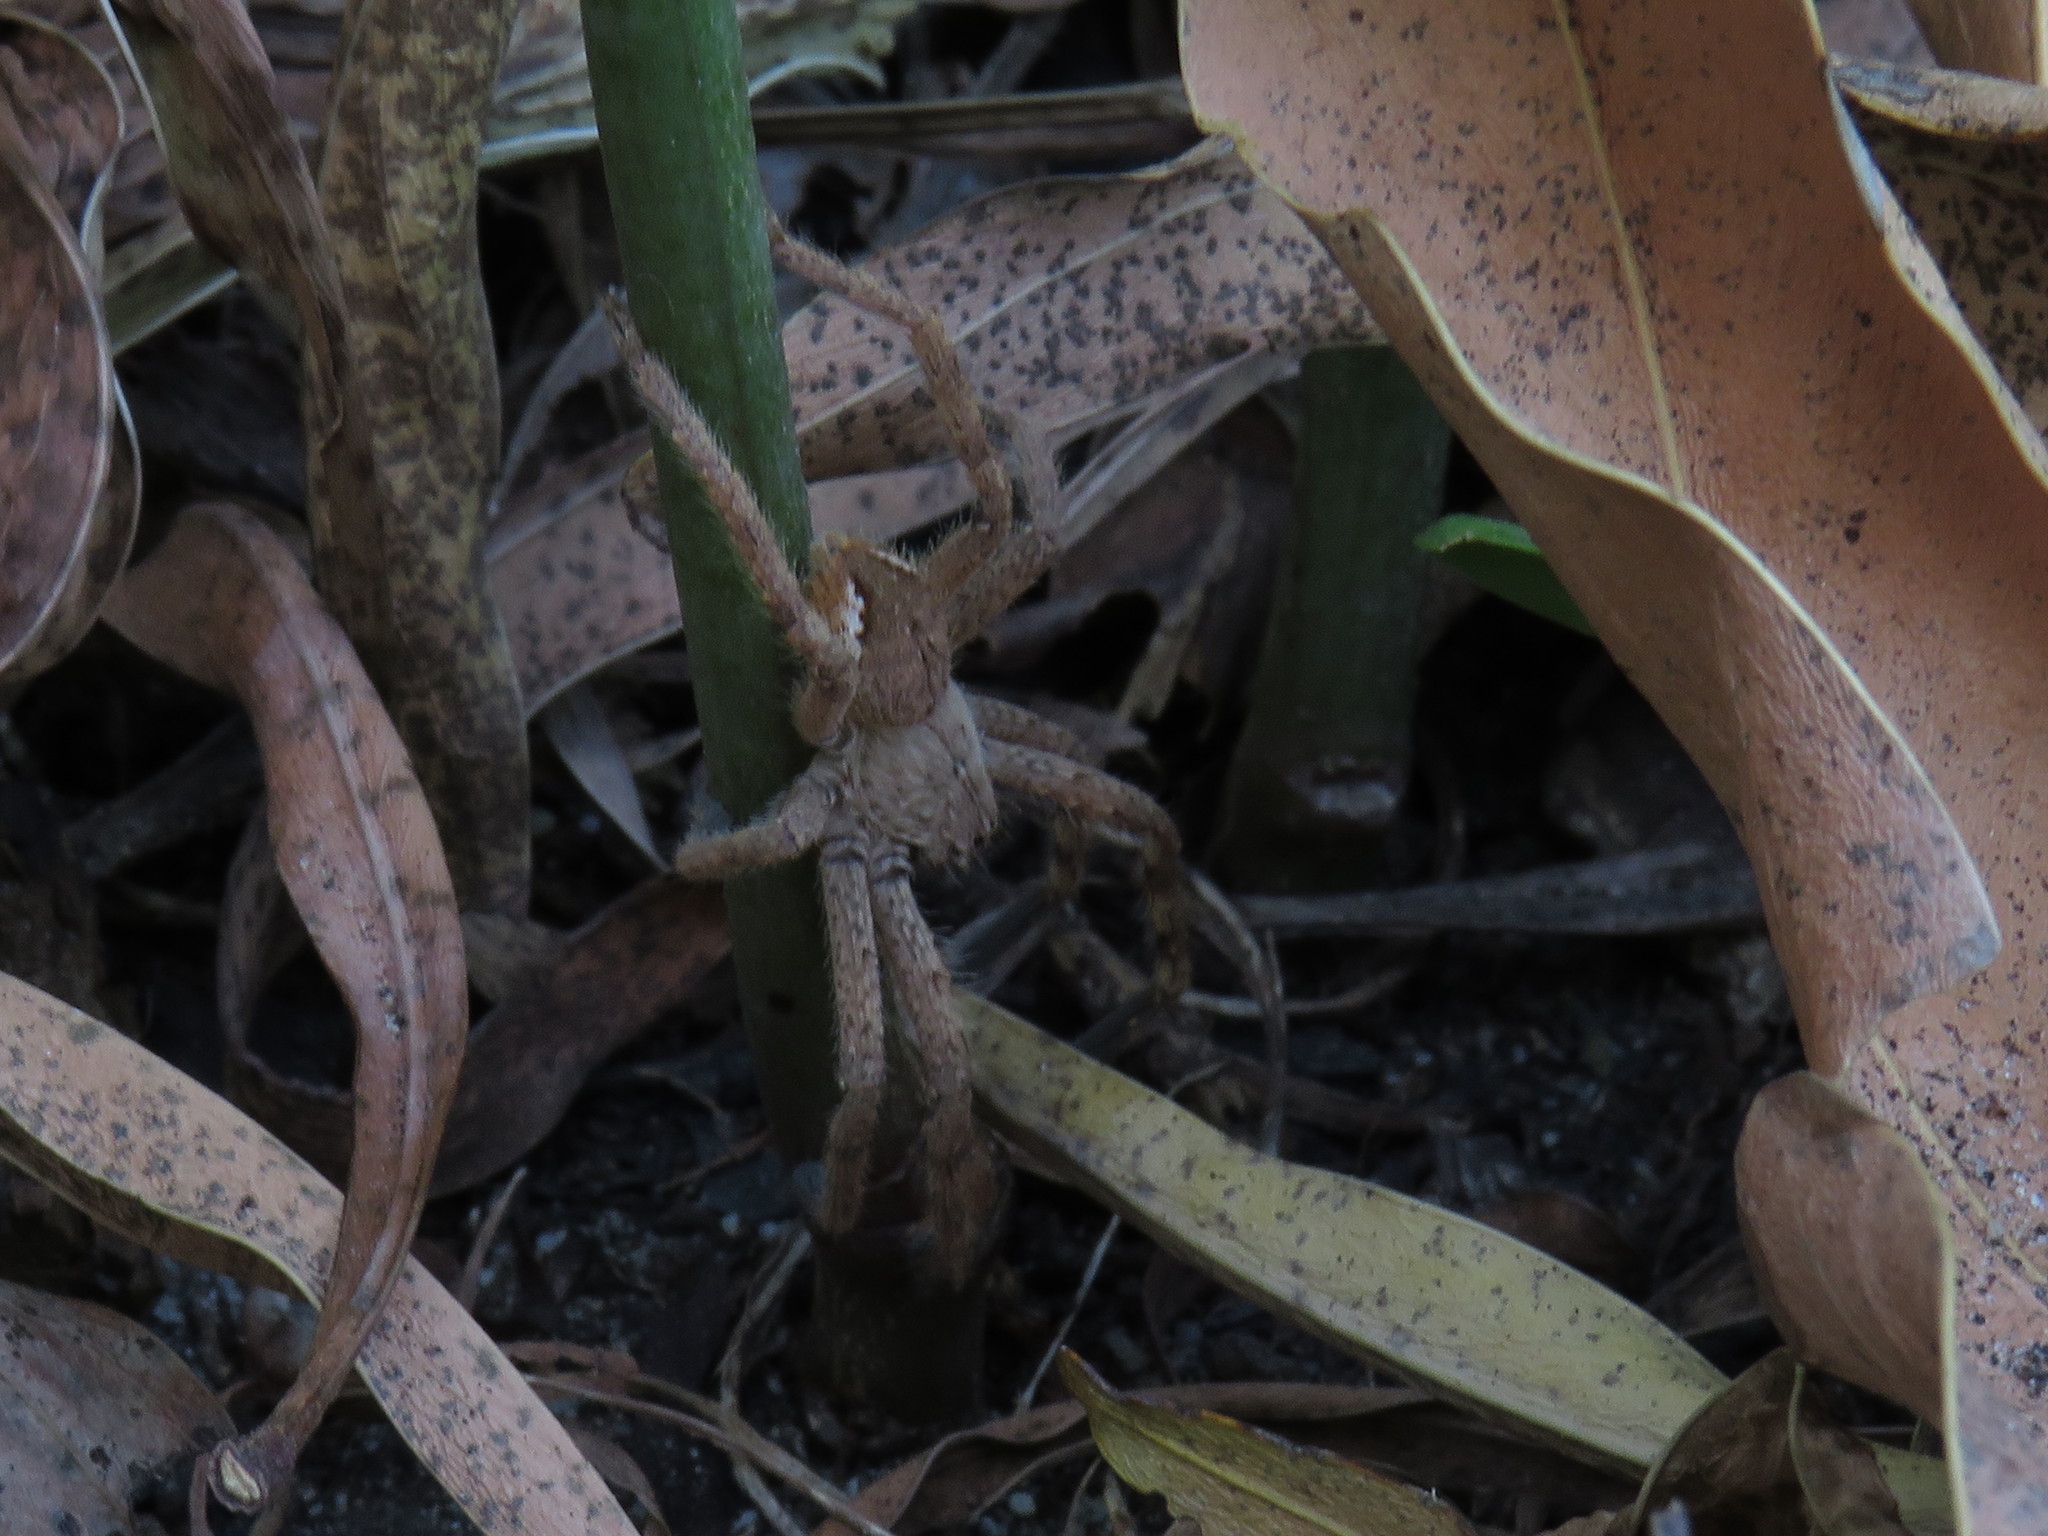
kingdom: Animalia
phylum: Arthropoda
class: Arachnida
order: Araneae
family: Sparassidae
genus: Palystes
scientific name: Palystes superciliosus
